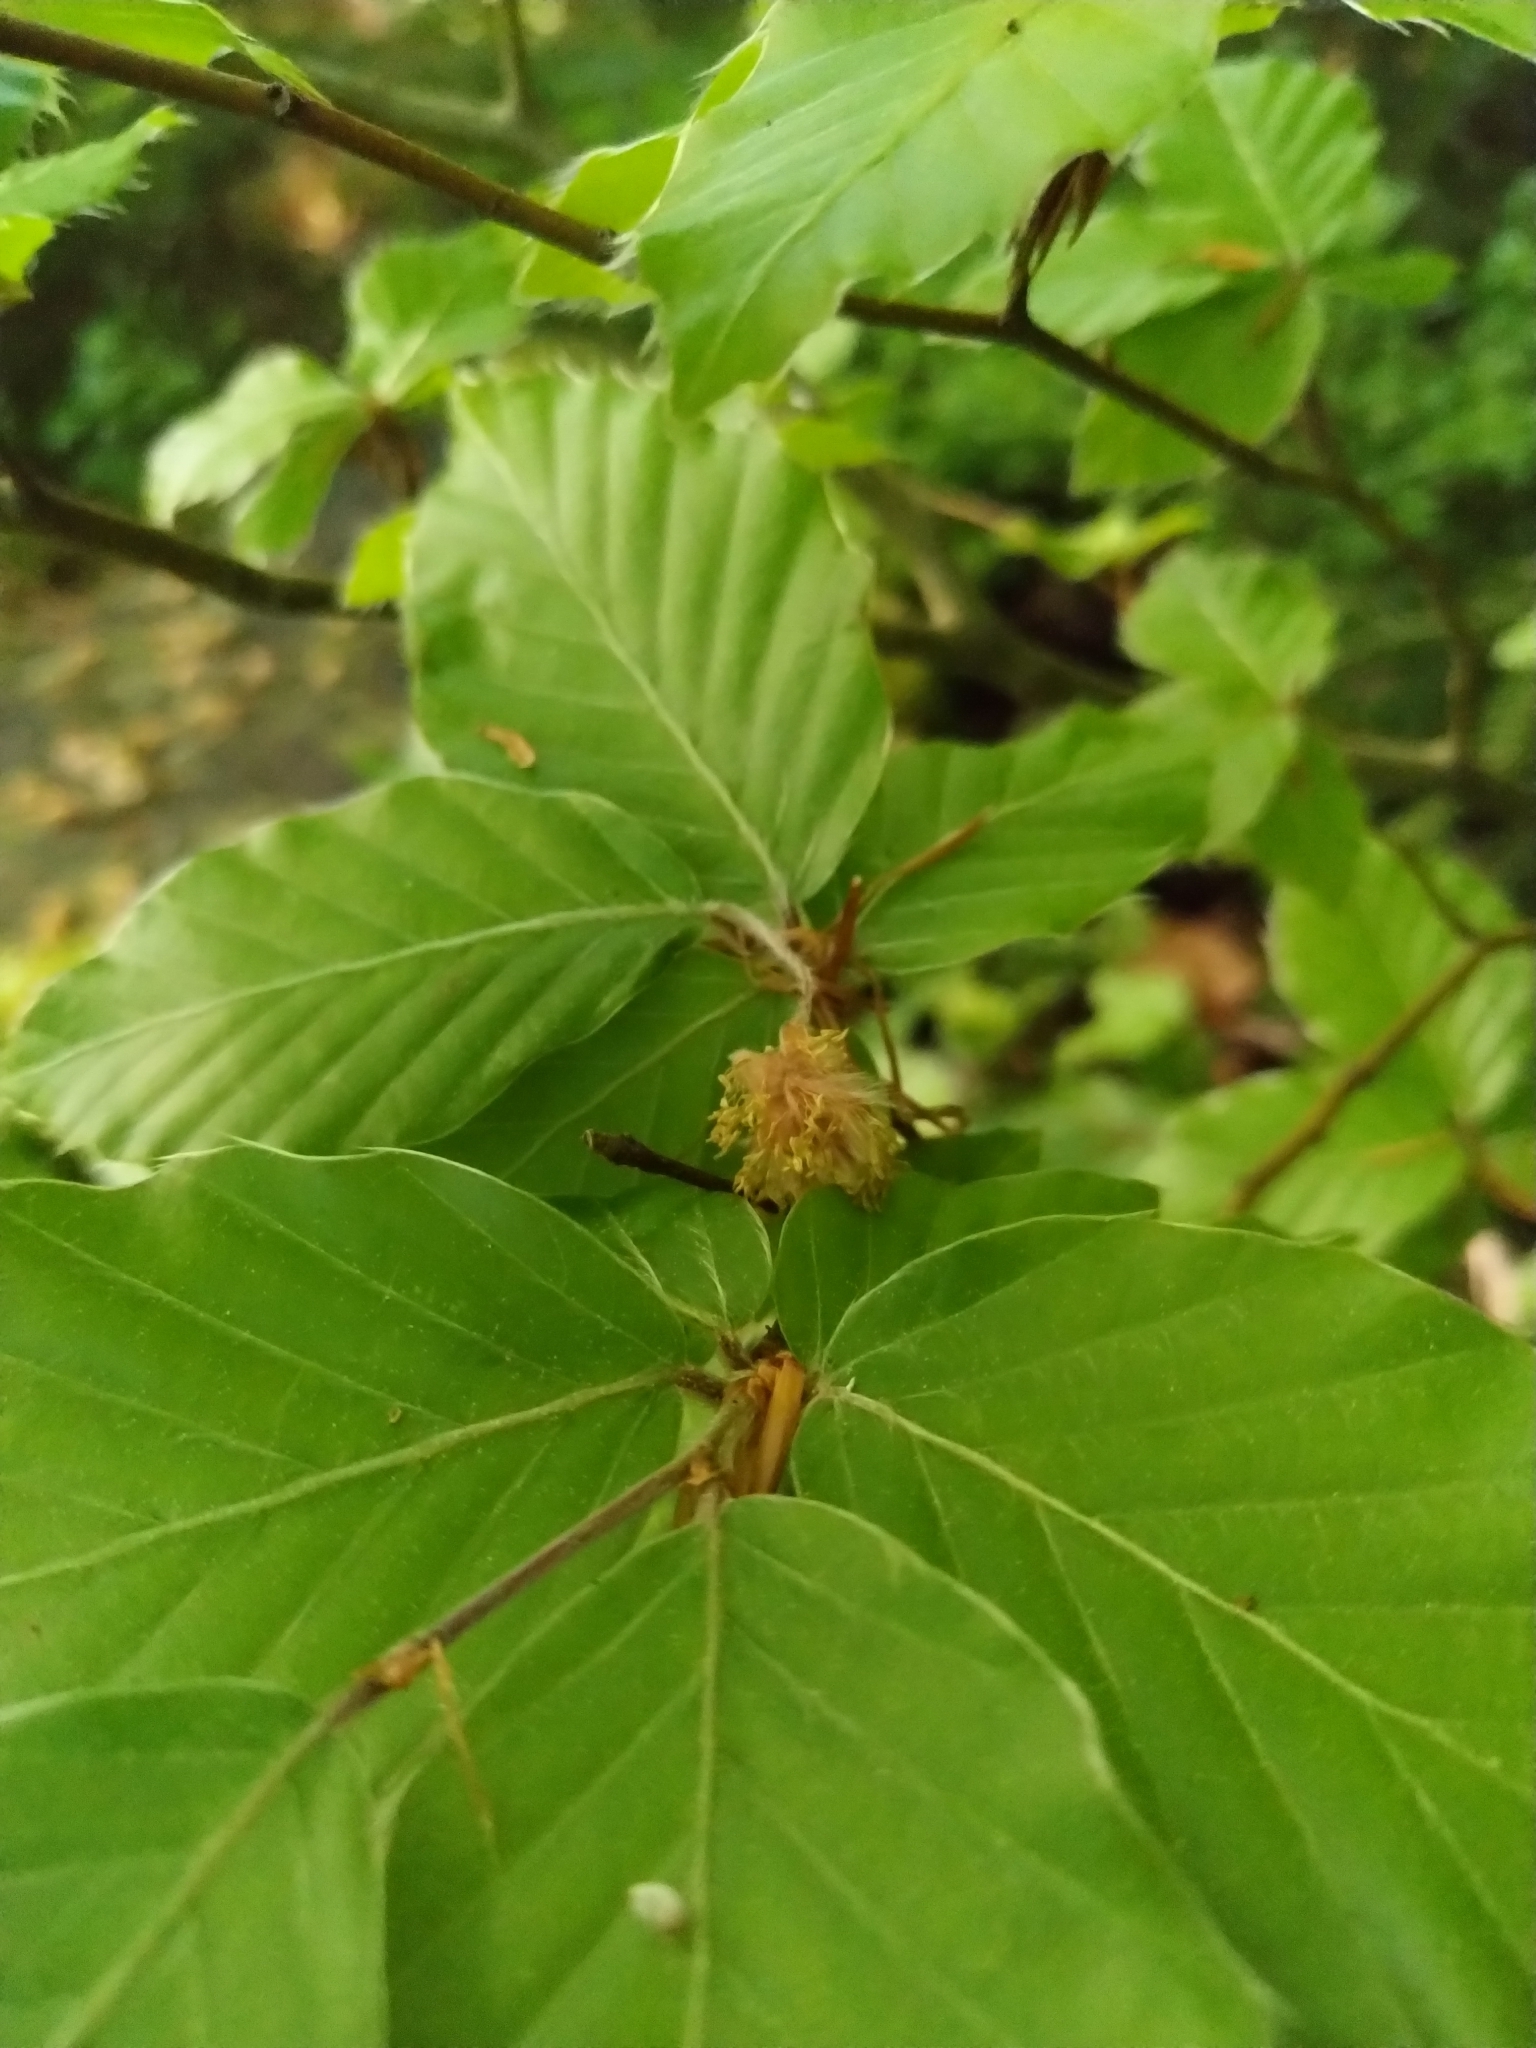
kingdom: Plantae
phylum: Tracheophyta
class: Magnoliopsida
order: Fagales
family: Fagaceae
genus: Fagus
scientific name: Fagus sylvatica
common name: Beech
